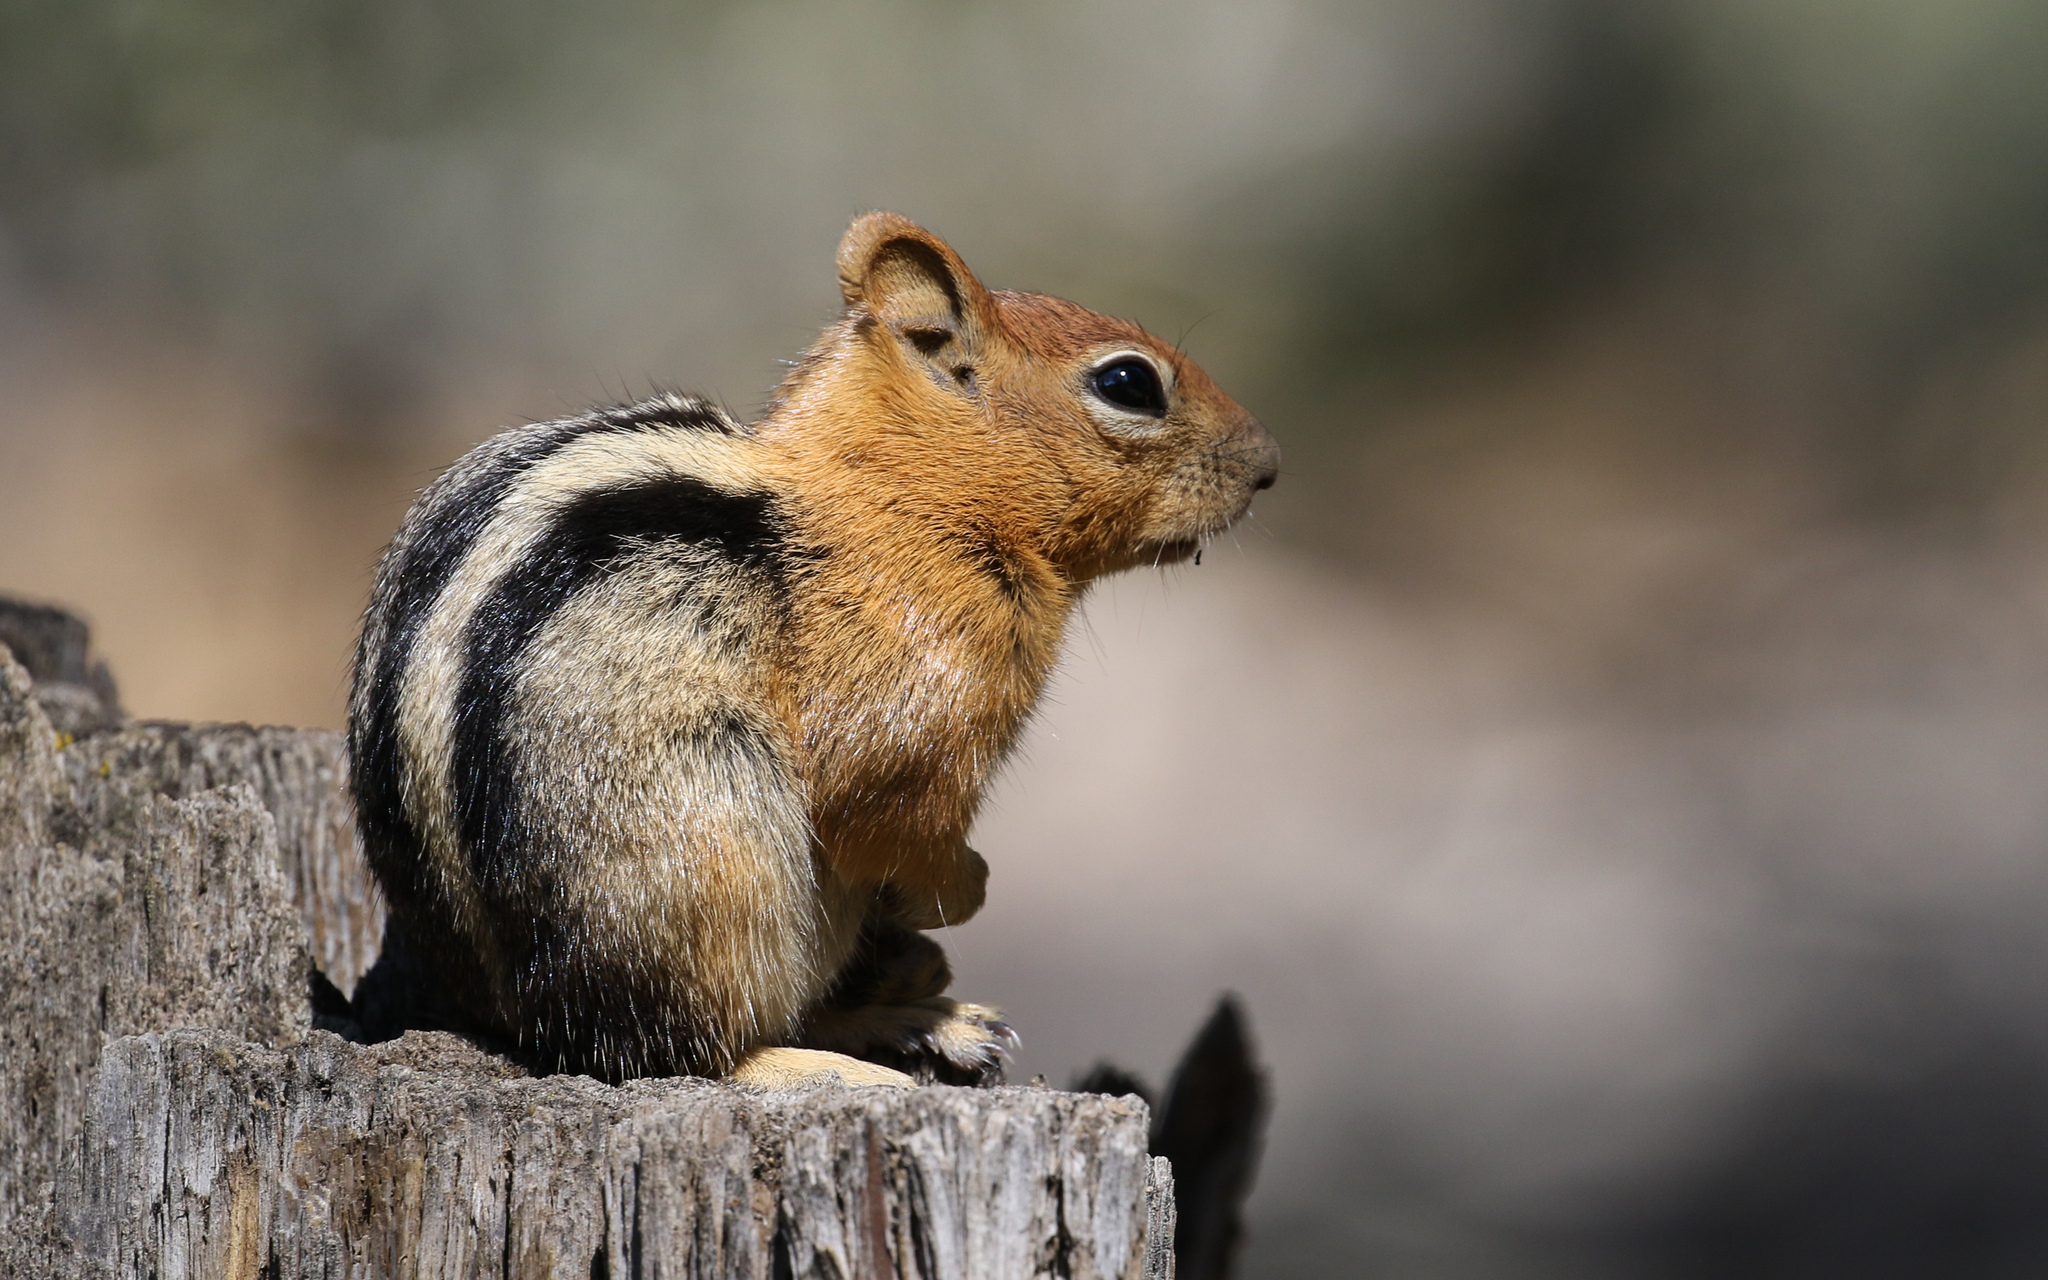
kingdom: Animalia
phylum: Chordata
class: Mammalia
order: Rodentia
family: Sciuridae
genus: Callospermophilus
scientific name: Callospermophilus lateralis
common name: Golden-mantled ground squirrel
